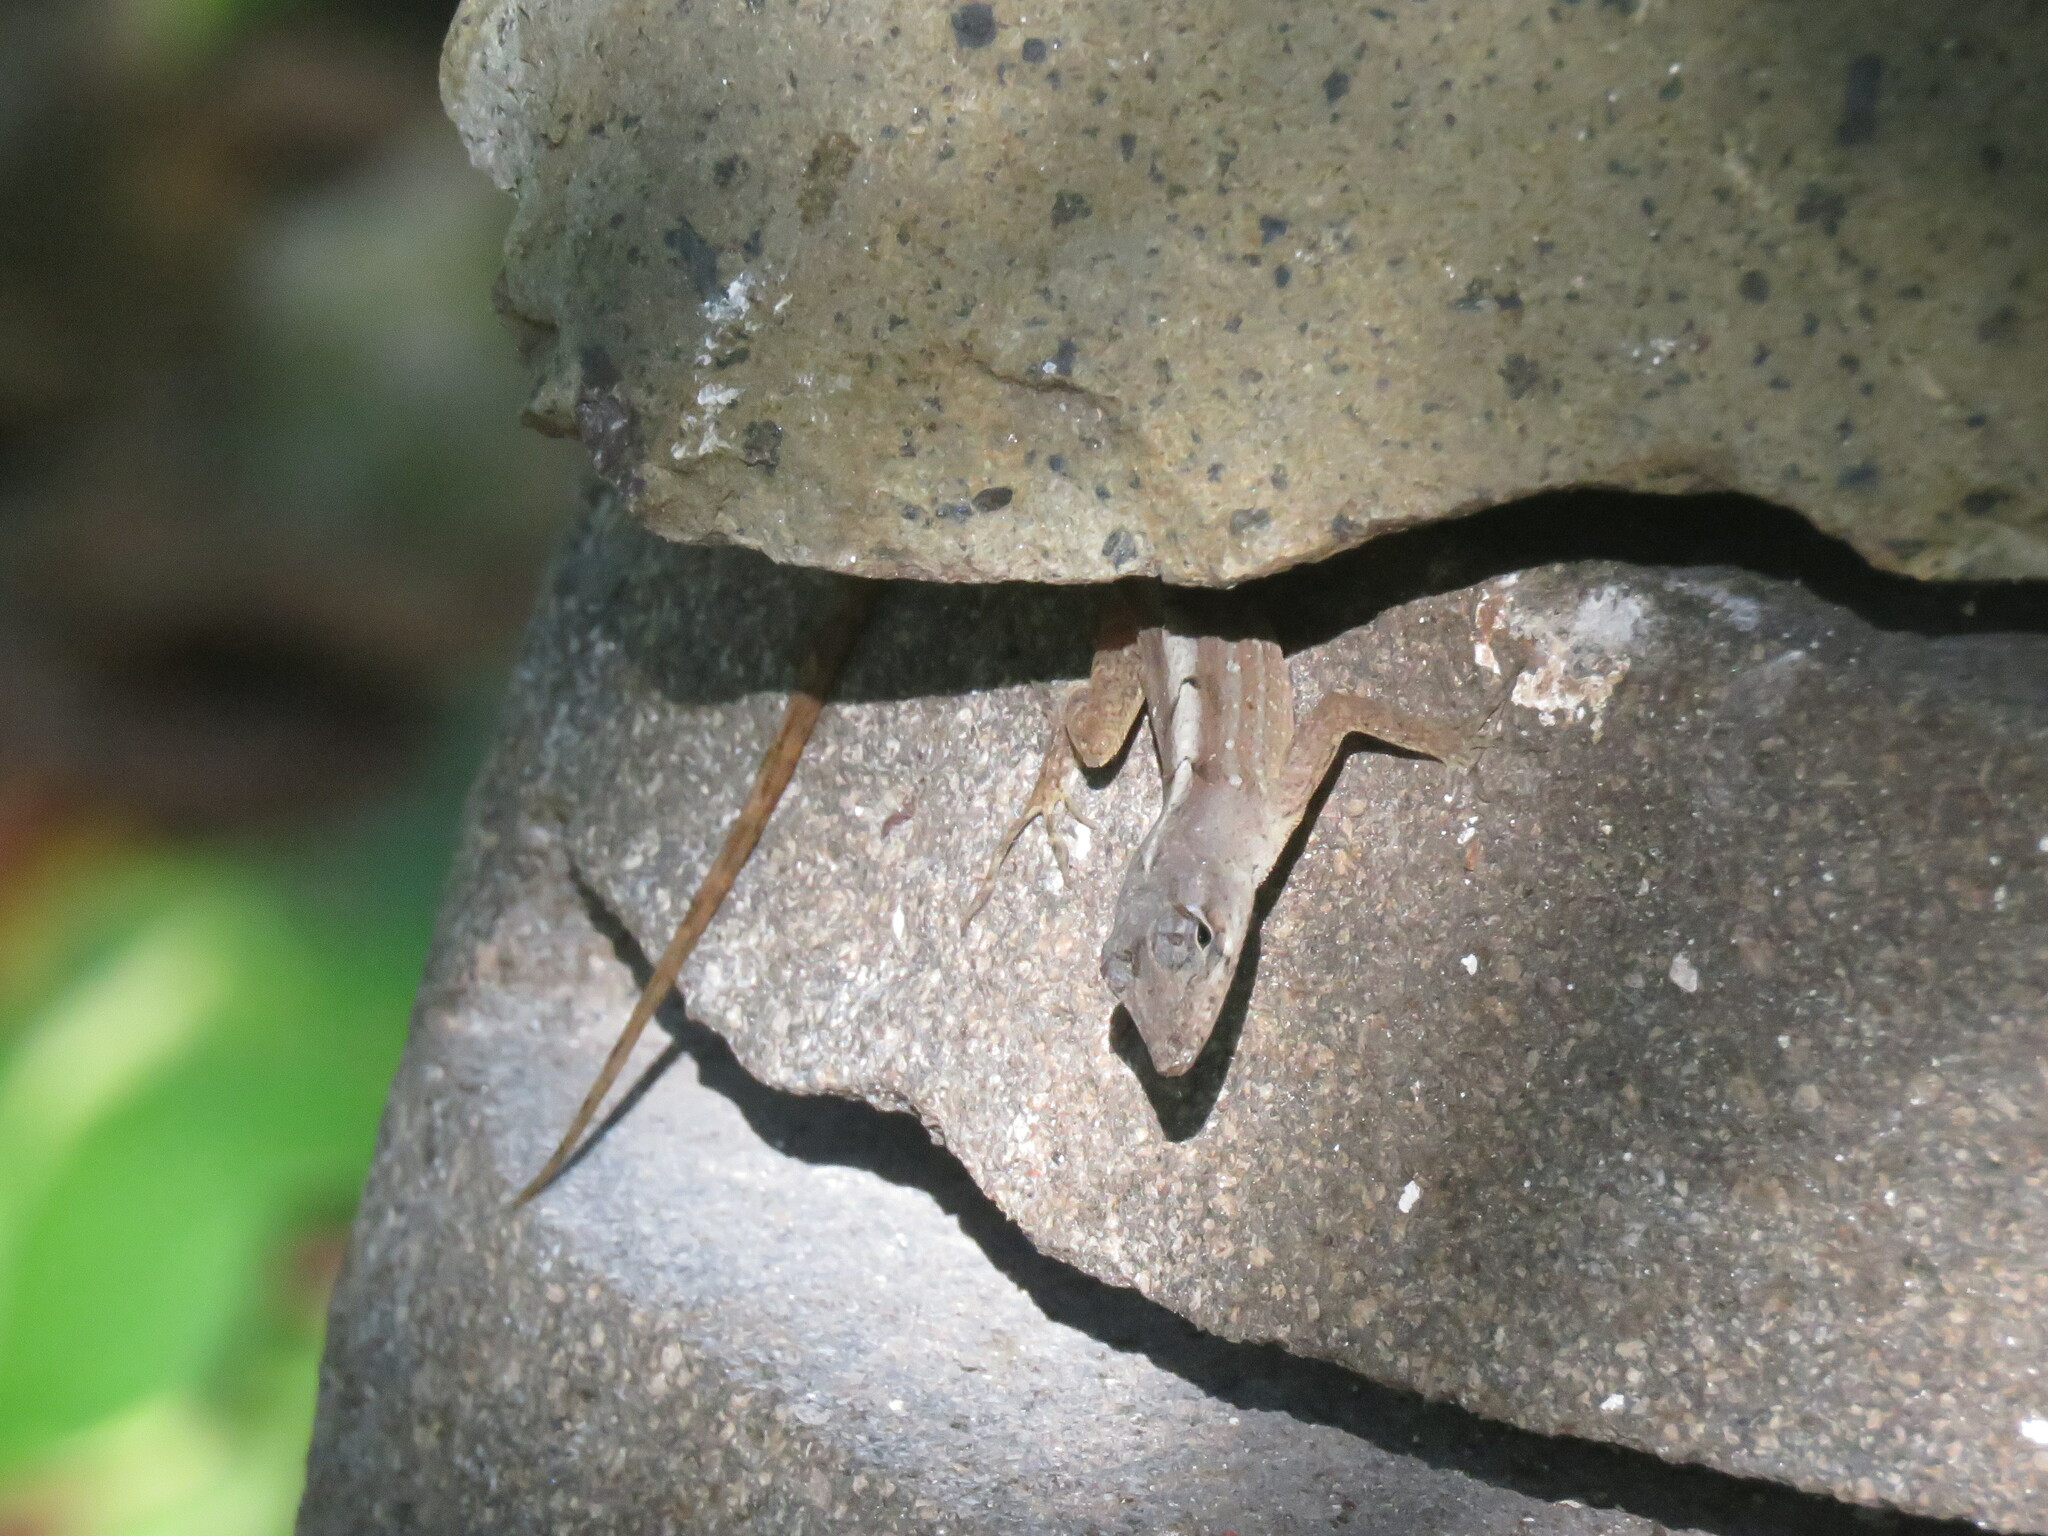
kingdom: Animalia
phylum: Chordata
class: Squamata
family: Dactyloidae
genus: Anolis
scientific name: Anolis sagrei
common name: Brown anole
